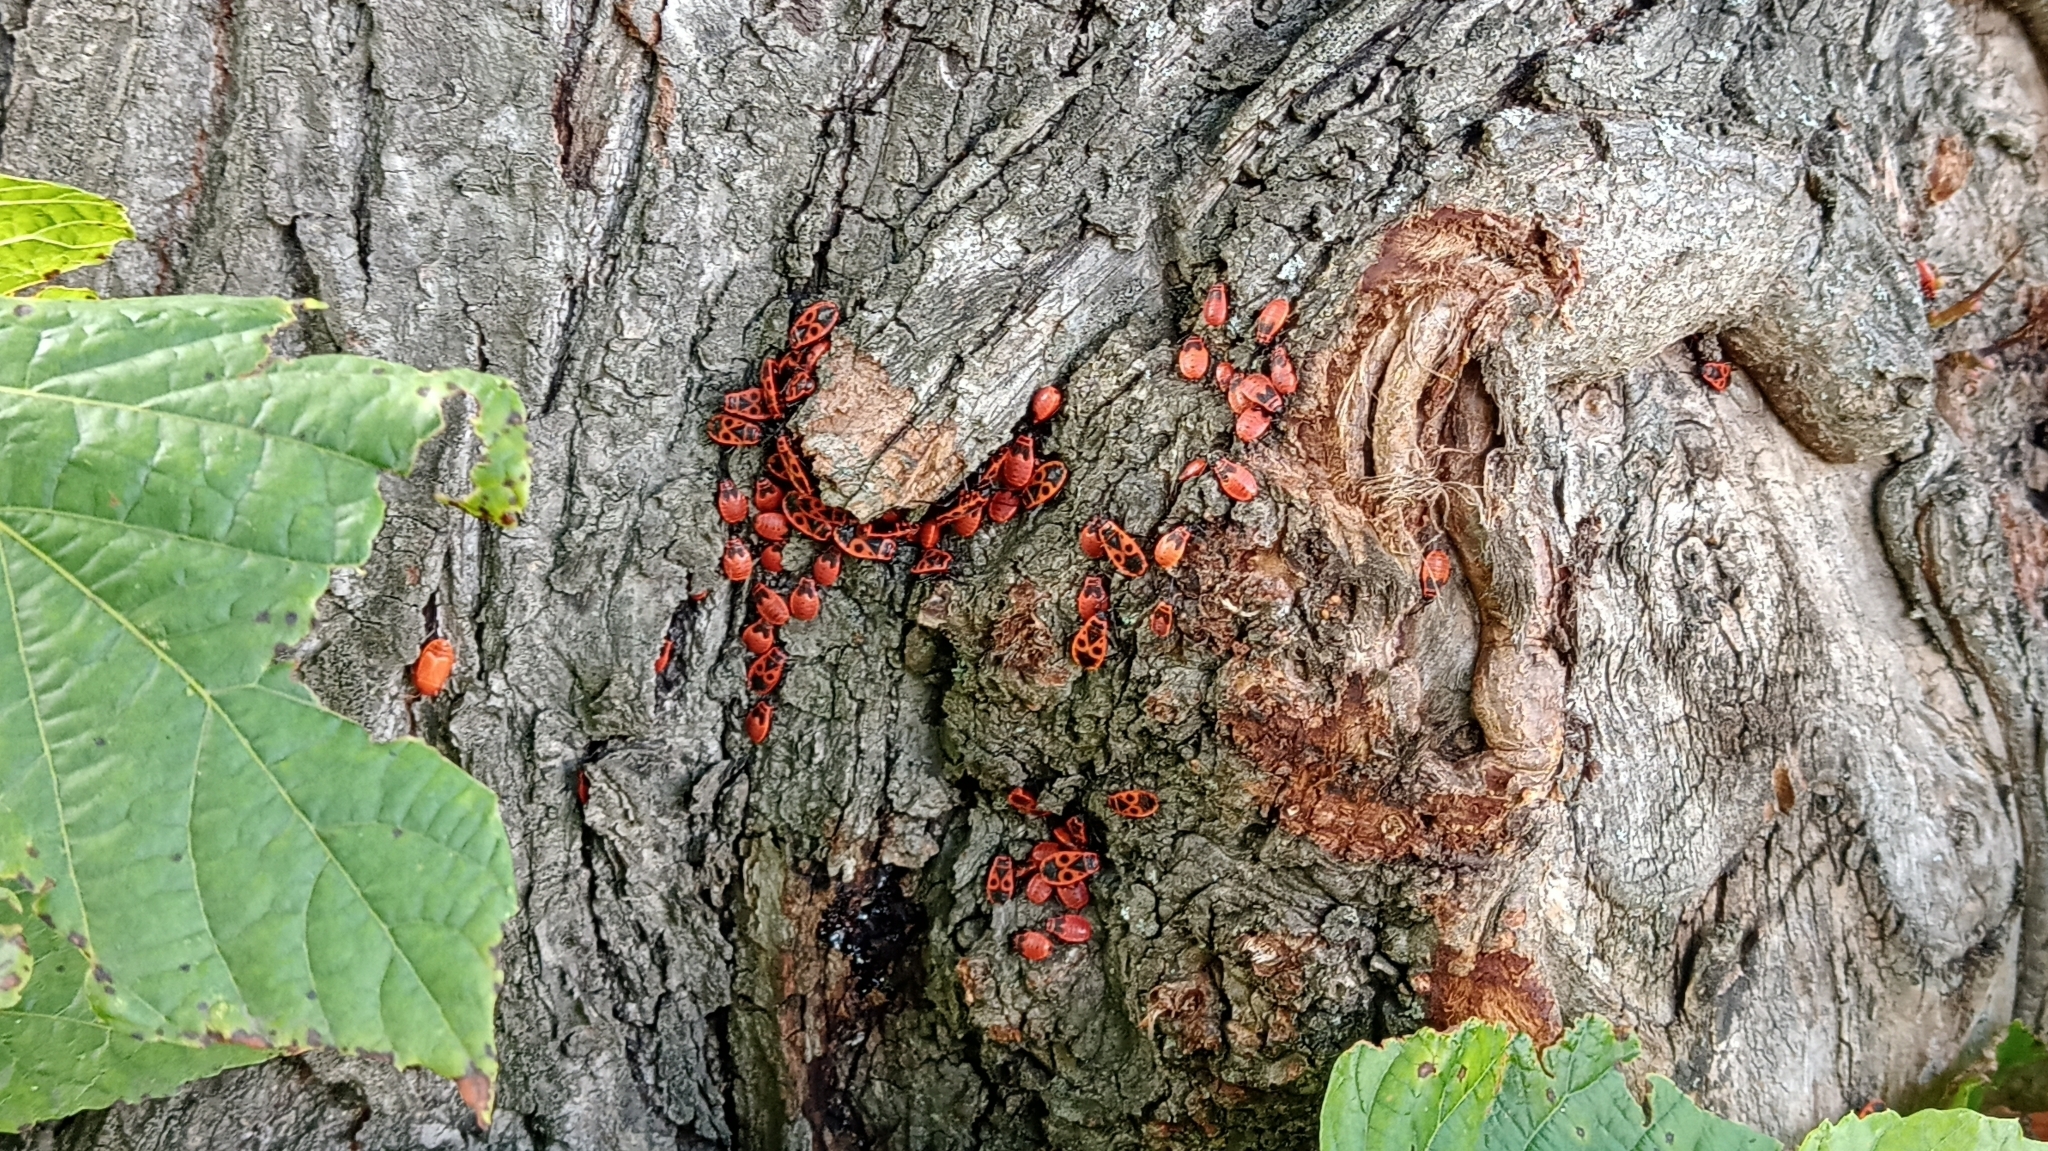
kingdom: Animalia
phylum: Arthropoda
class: Insecta
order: Hemiptera
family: Pyrrhocoridae
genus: Pyrrhocoris
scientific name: Pyrrhocoris apterus
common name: Firebug
